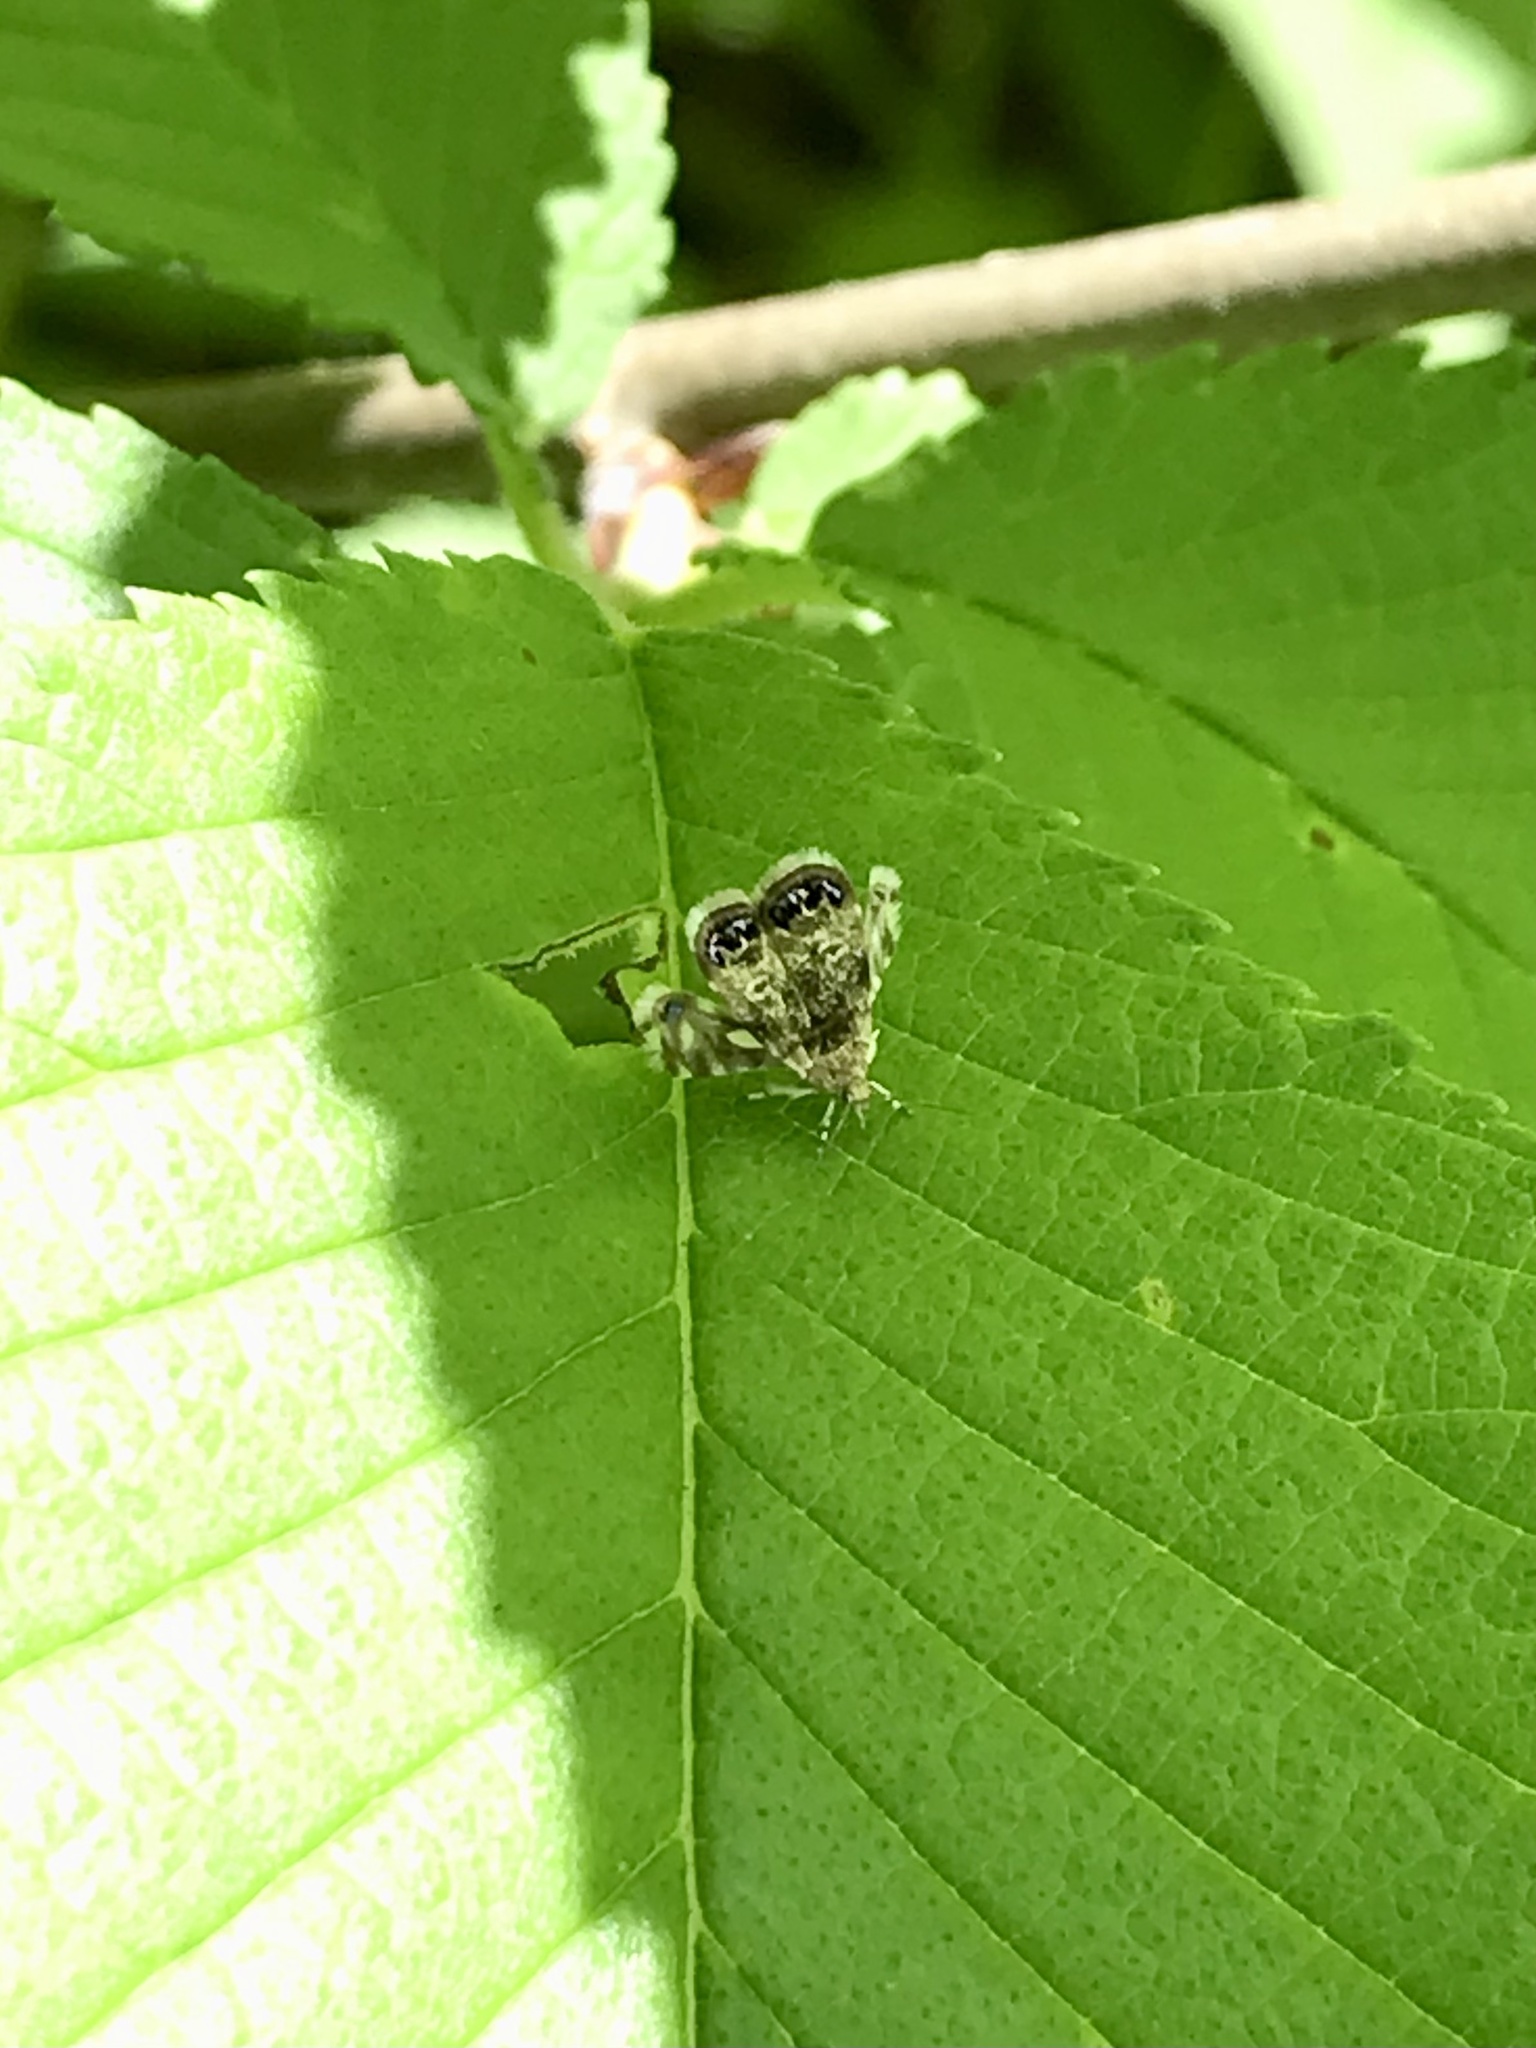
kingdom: Animalia
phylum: Arthropoda
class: Insecta
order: Lepidoptera
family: Choreutidae
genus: Brenthia
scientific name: Brenthia pavonacella
